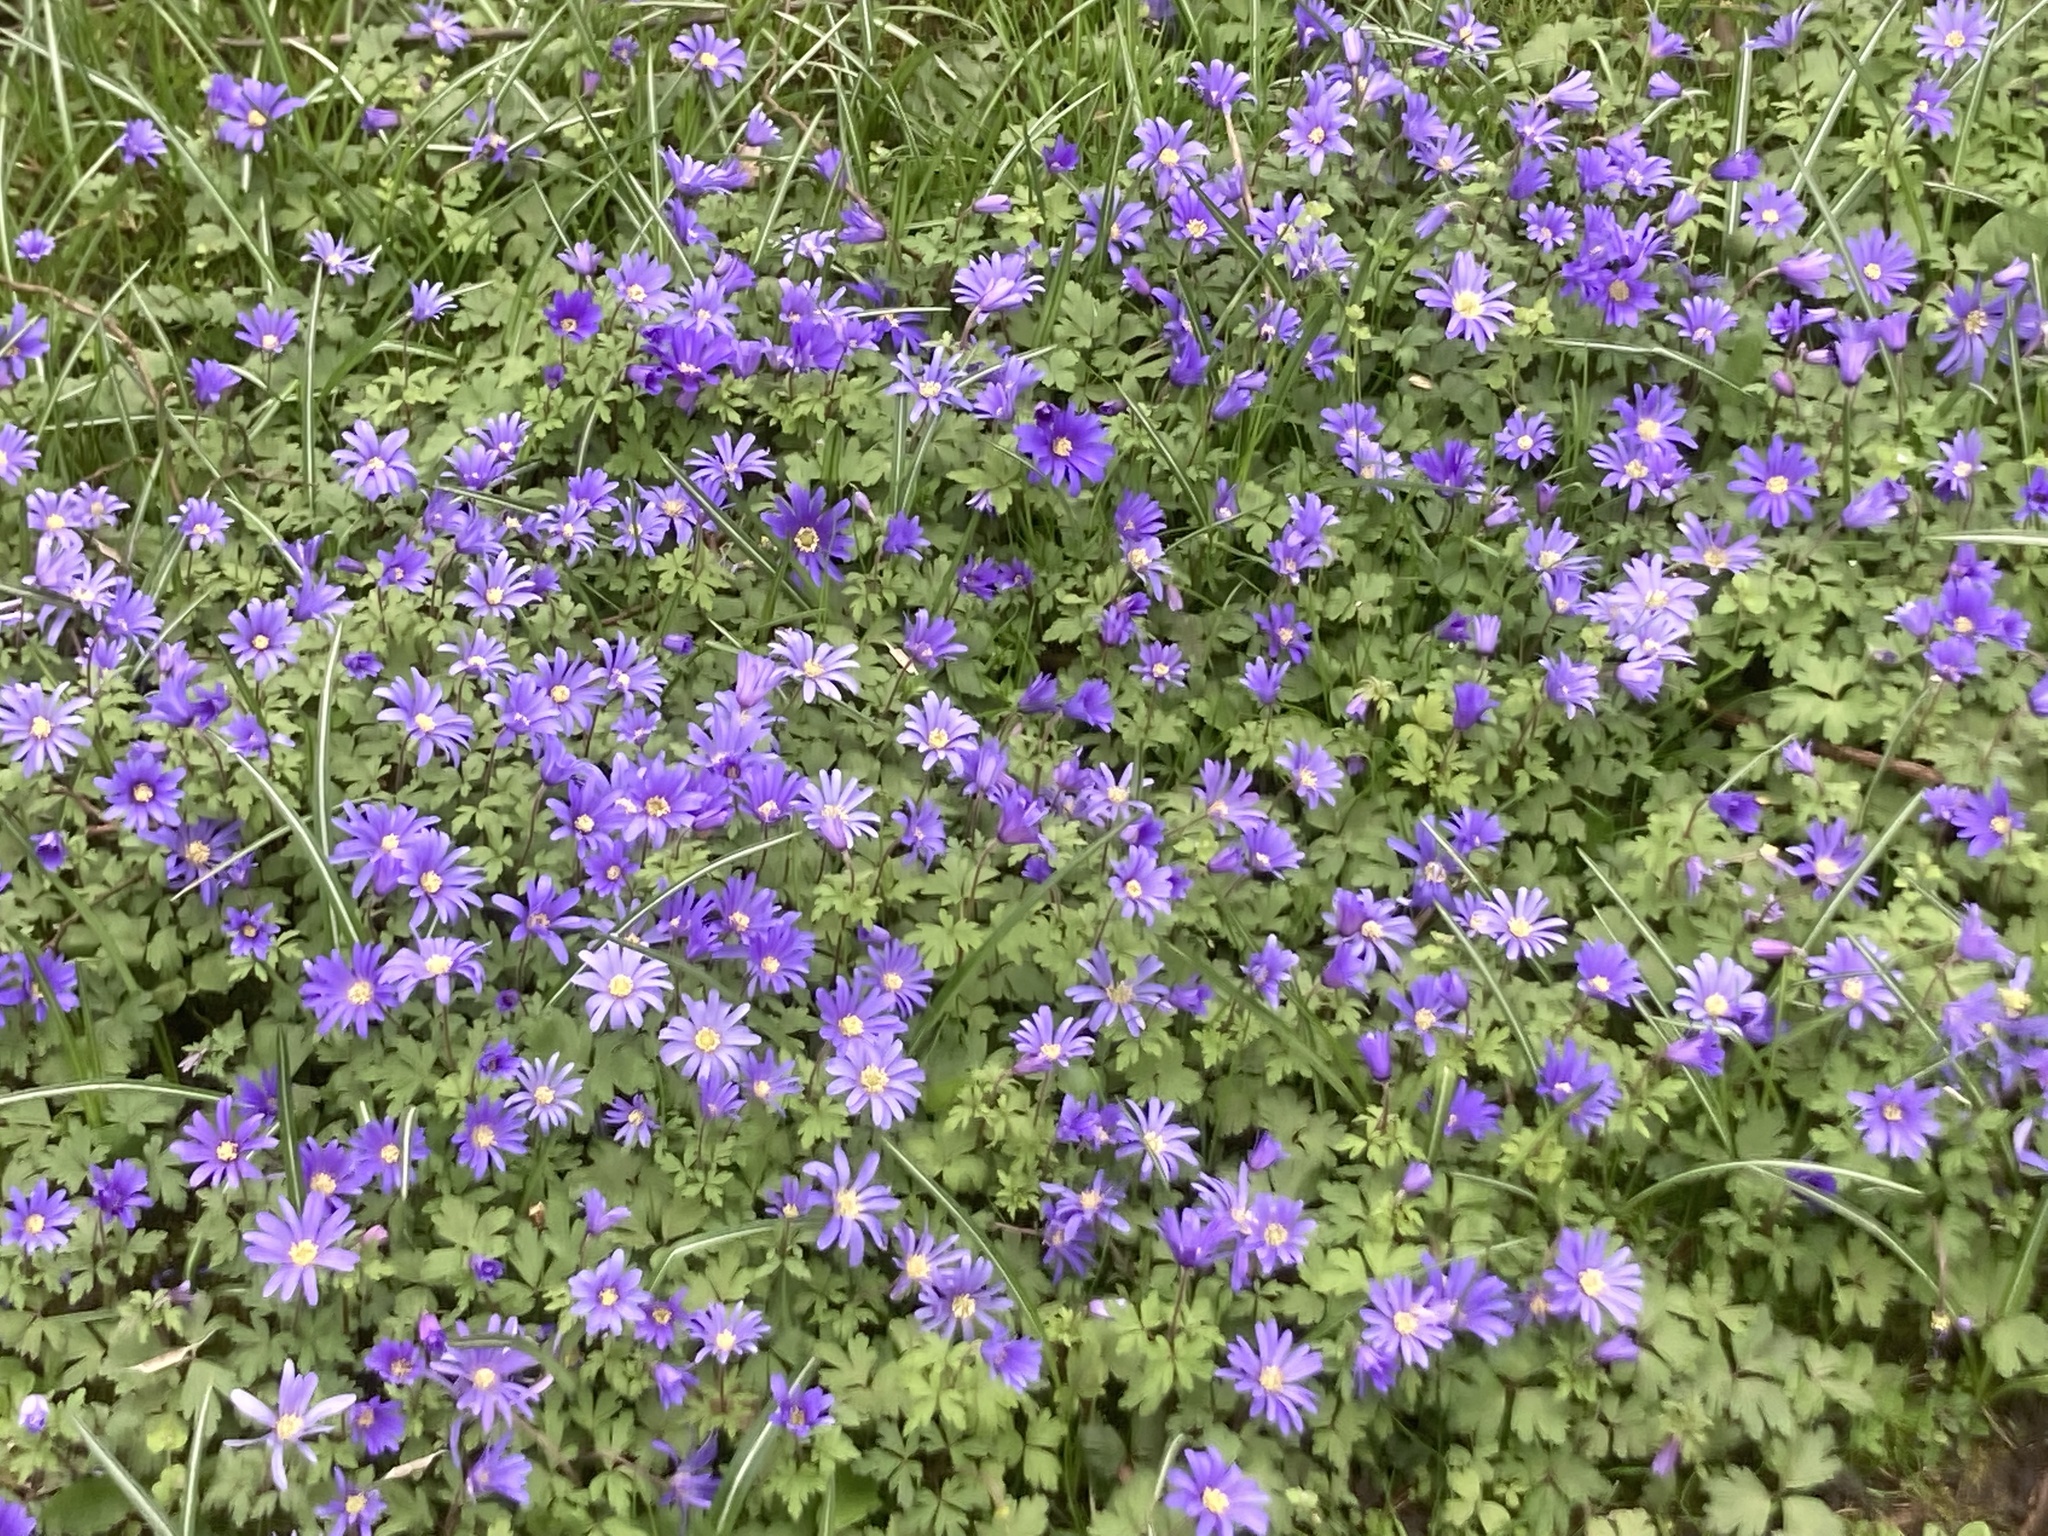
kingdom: Plantae
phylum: Tracheophyta
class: Magnoliopsida
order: Ranunculales
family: Ranunculaceae
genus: Anemone
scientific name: Anemone blanda
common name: Balkan anemone
